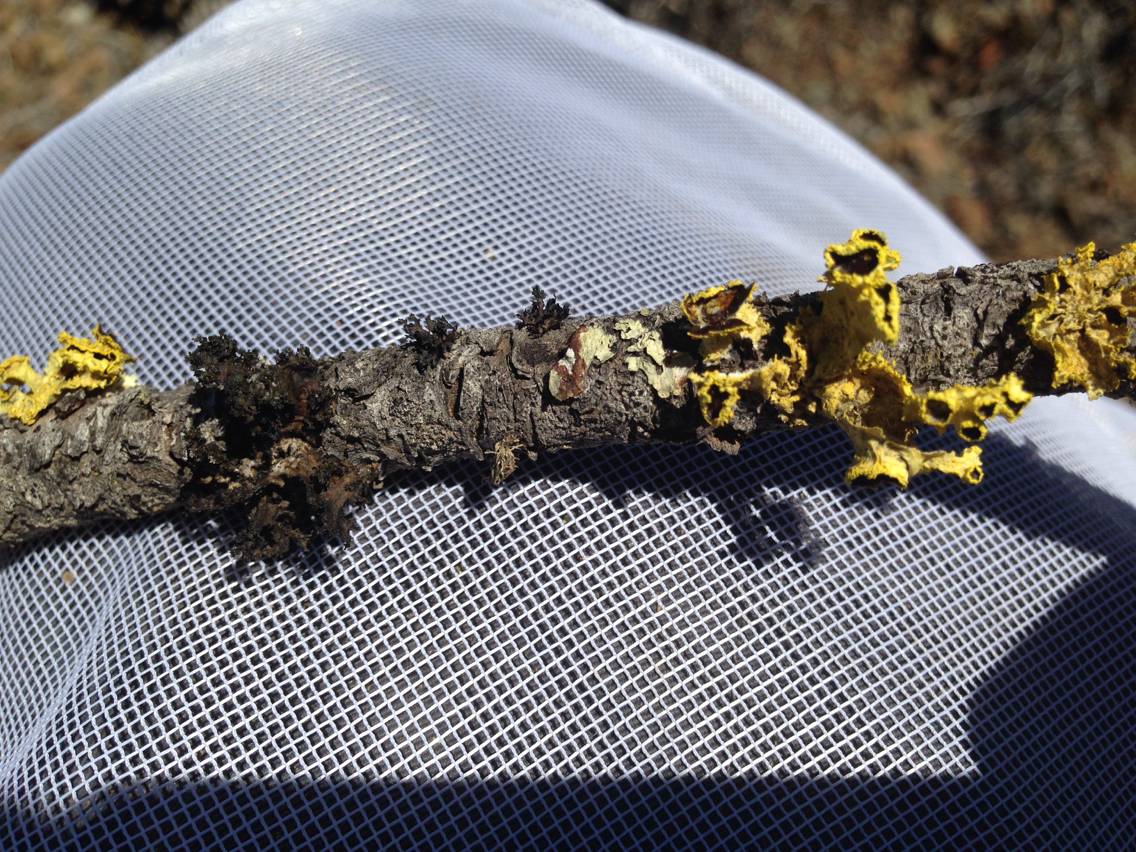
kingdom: Fungi
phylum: Ascomycota
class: Lecanoromycetes
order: Lecanorales
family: Parmeliaceae
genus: Vulpicida
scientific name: Vulpicida canadensis
